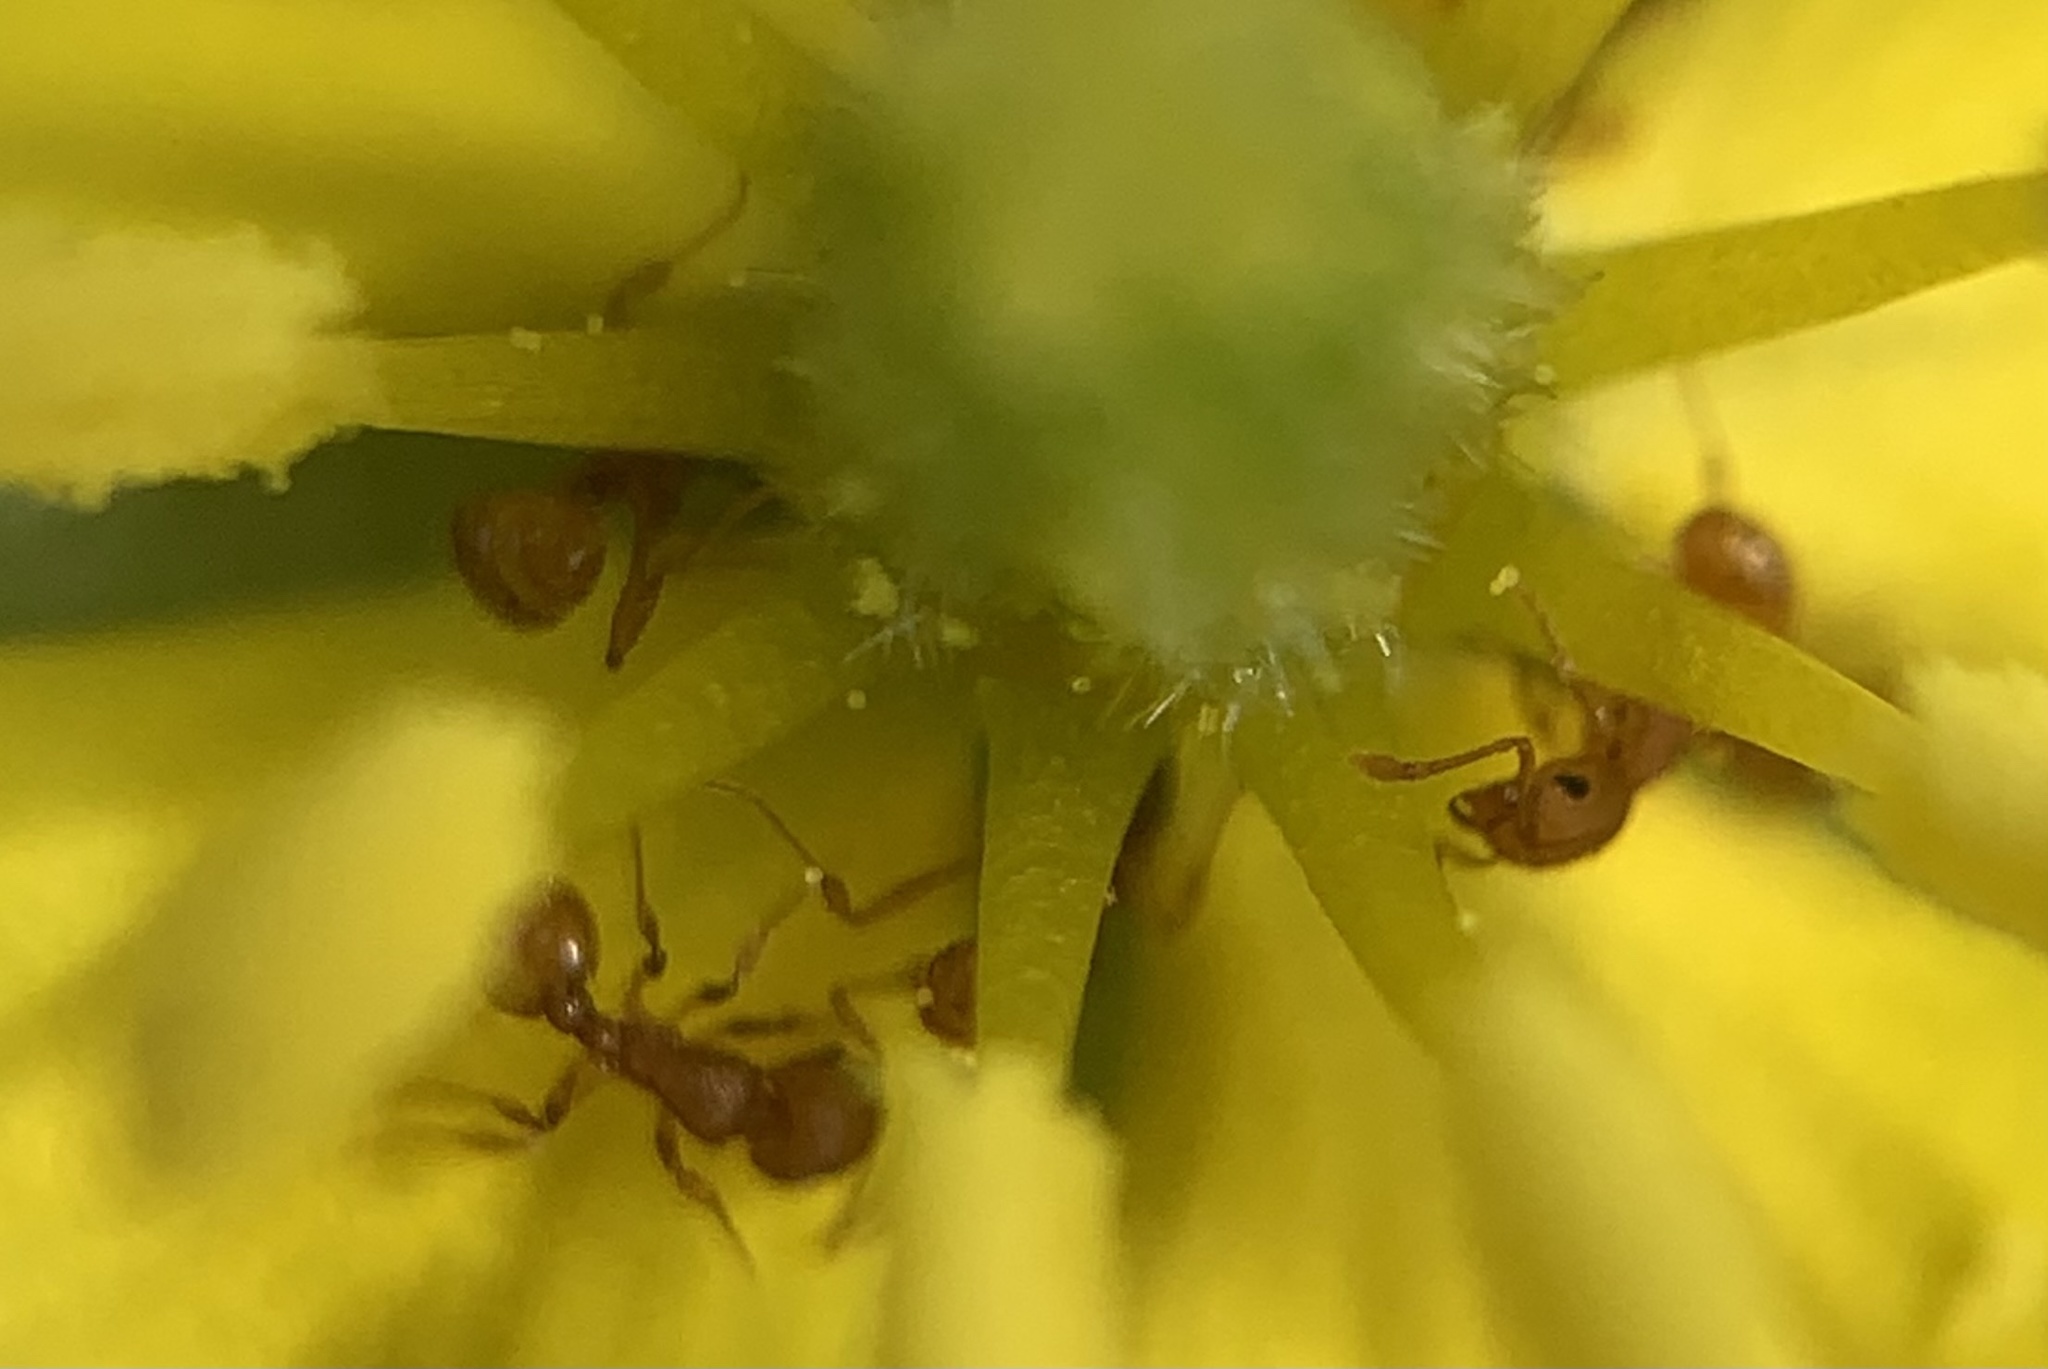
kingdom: Animalia
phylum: Arthropoda
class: Insecta
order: Hymenoptera
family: Formicidae
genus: Wasmannia
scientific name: Wasmannia auropunctata
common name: Little fire ant
